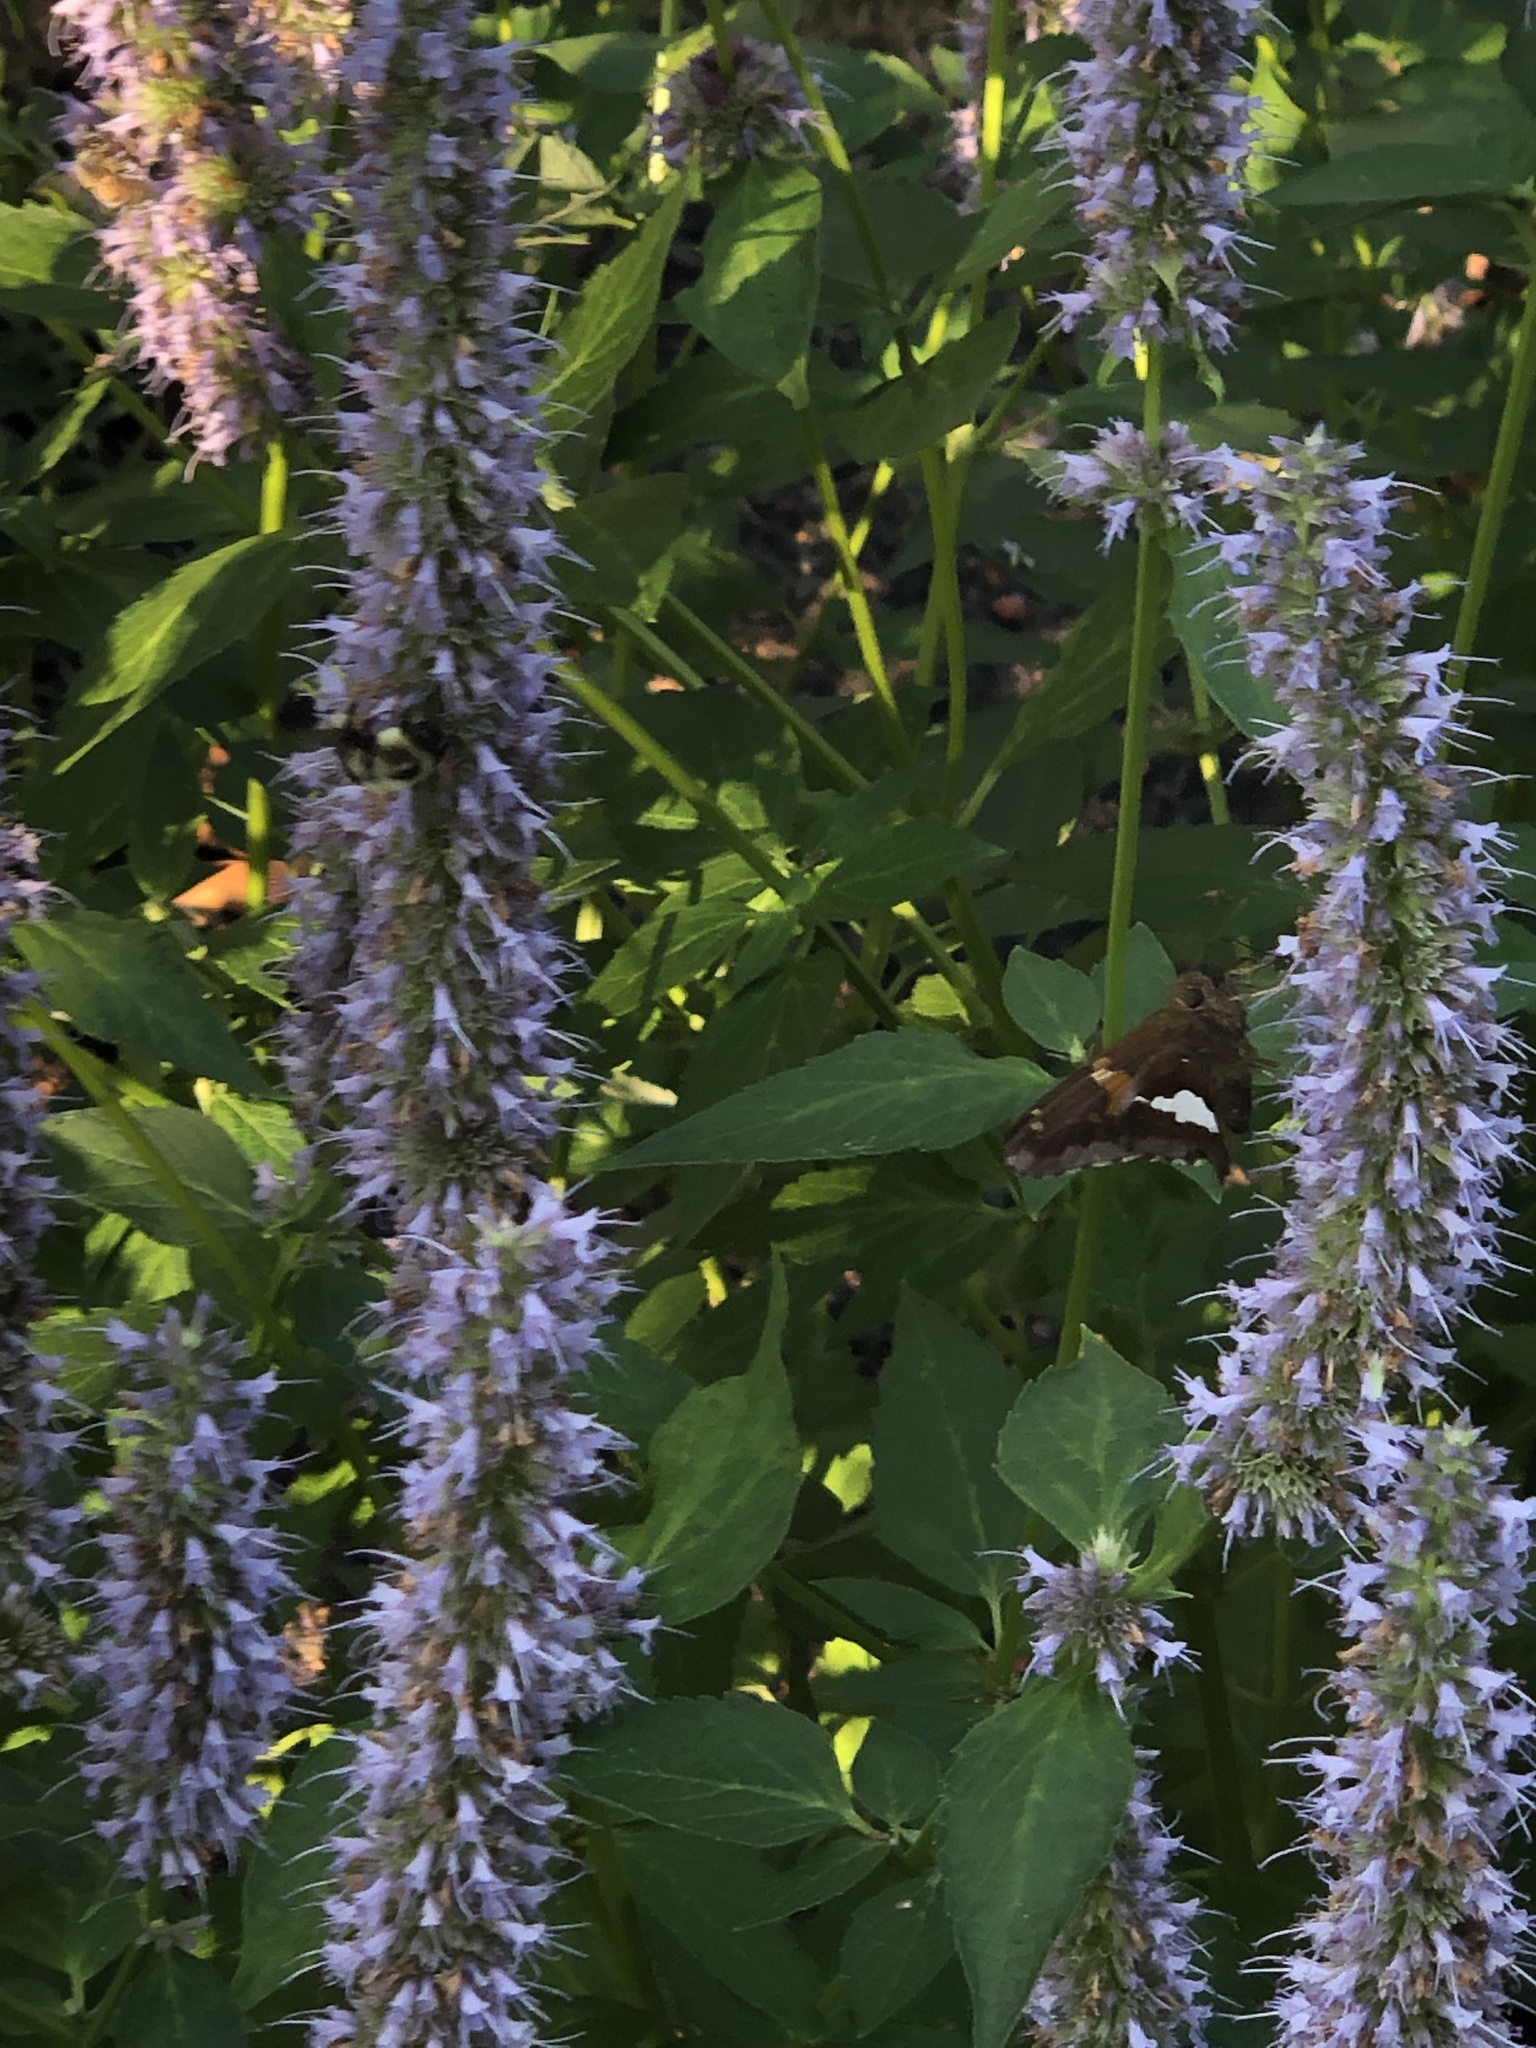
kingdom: Animalia
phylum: Arthropoda
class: Insecta
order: Lepidoptera
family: Hesperiidae
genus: Epargyreus
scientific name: Epargyreus clarus
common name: Silver-spotted skipper
